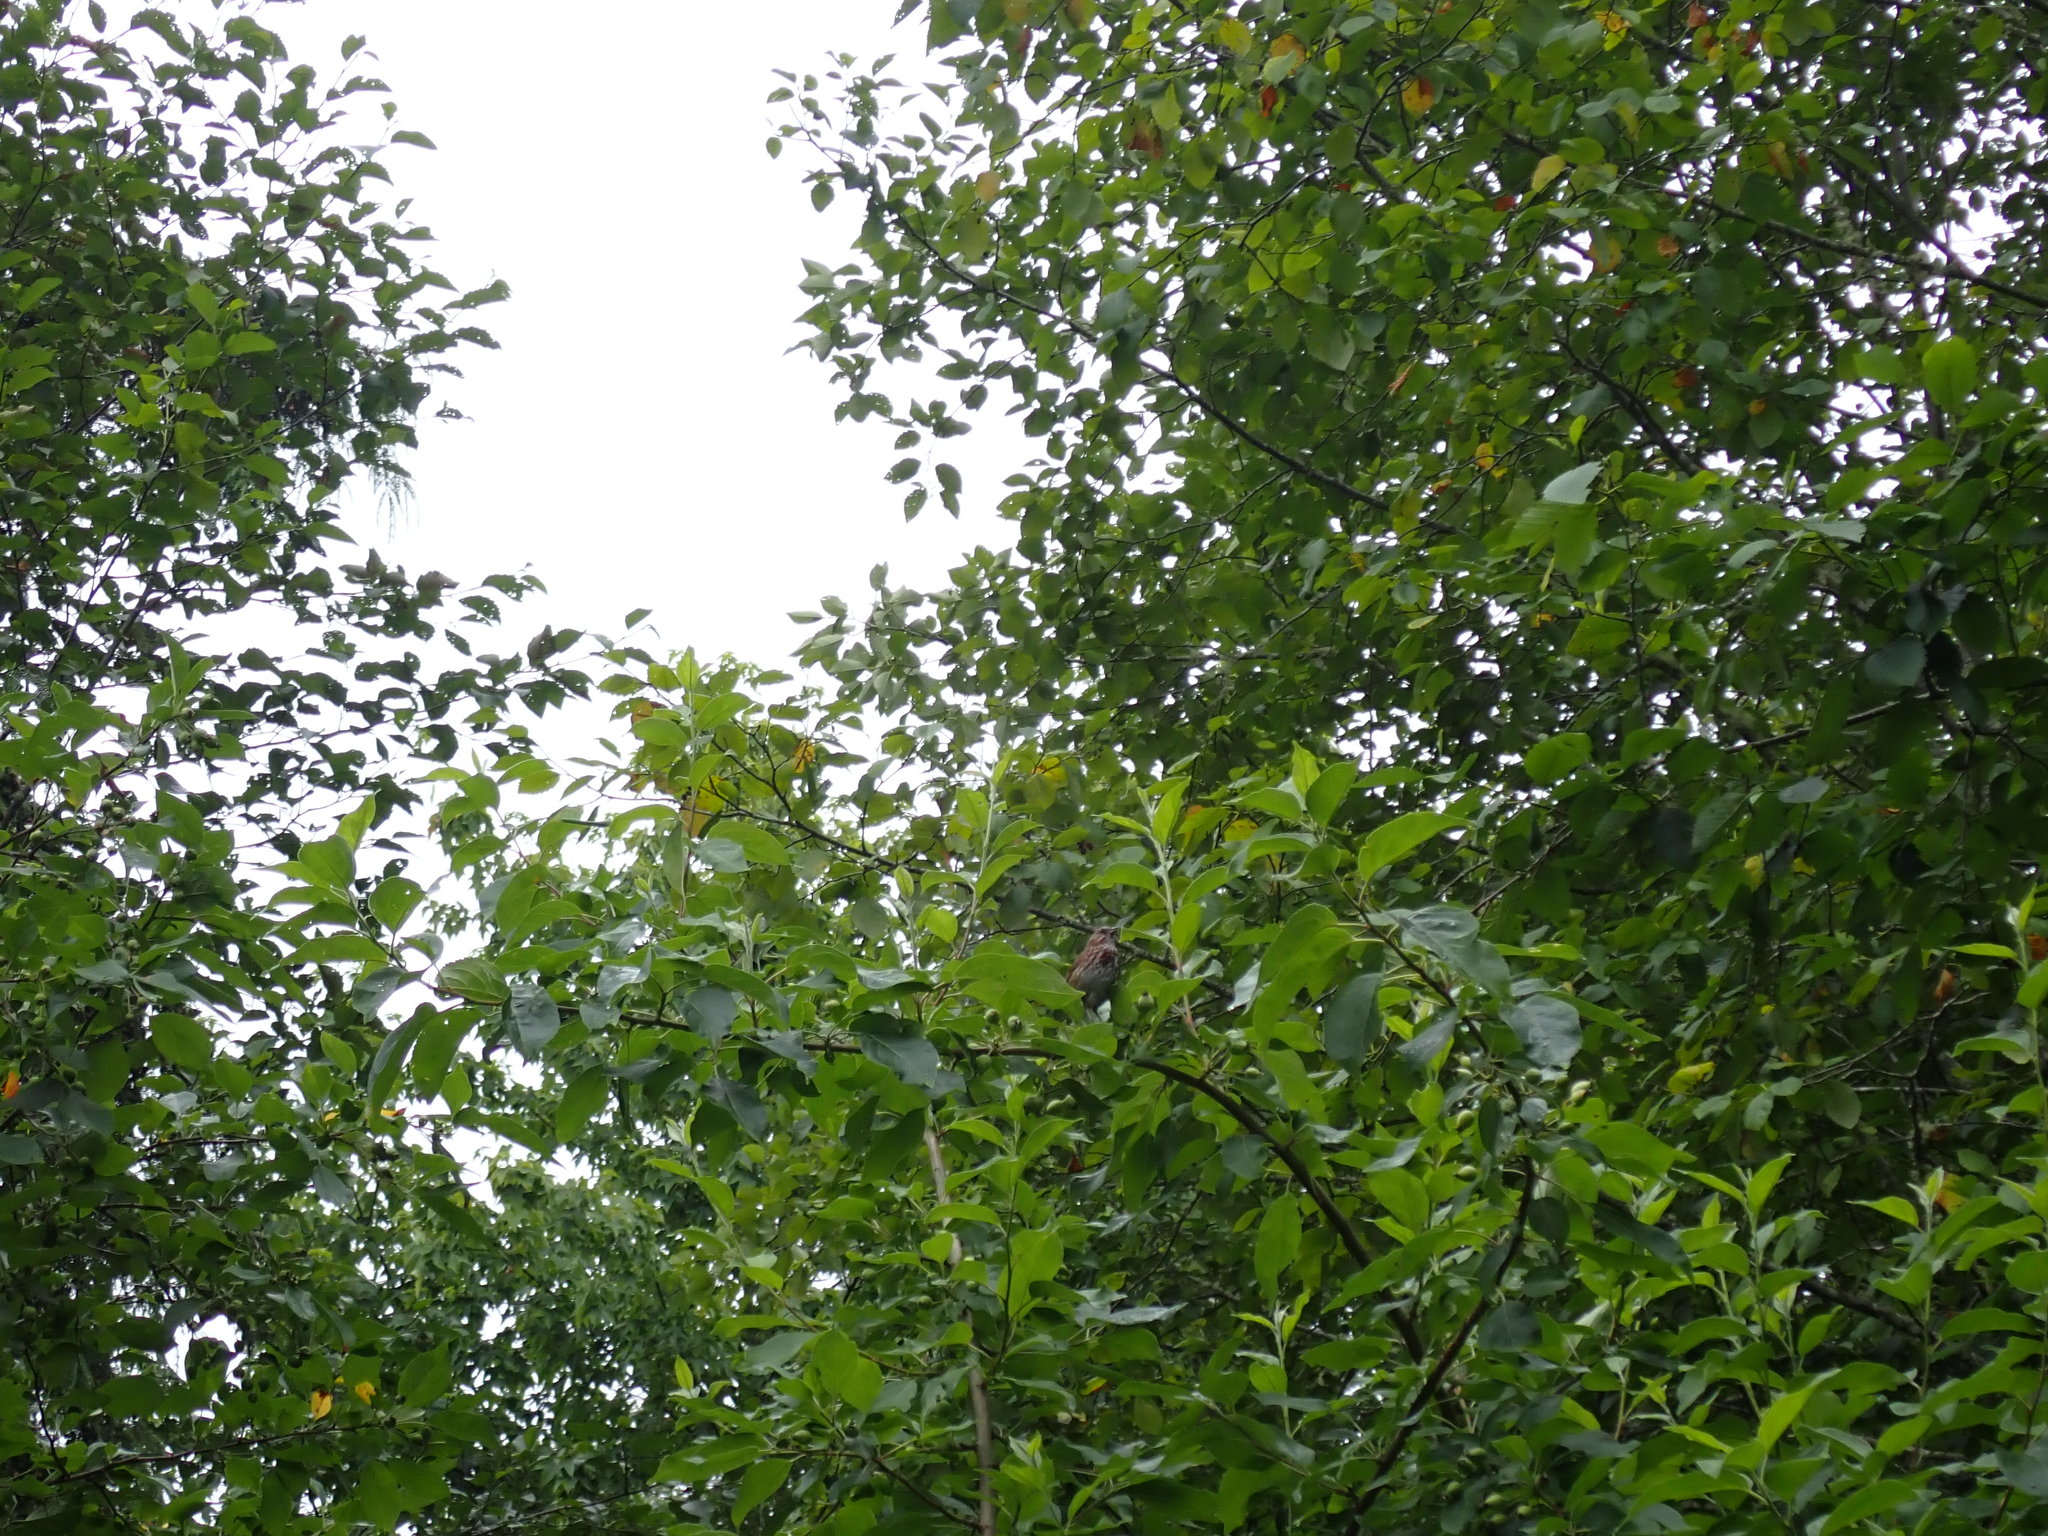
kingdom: Animalia
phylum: Chordata
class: Aves
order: Passeriformes
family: Passerellidae
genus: Melospiza
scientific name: Melospiza melodia
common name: Song sparrow
